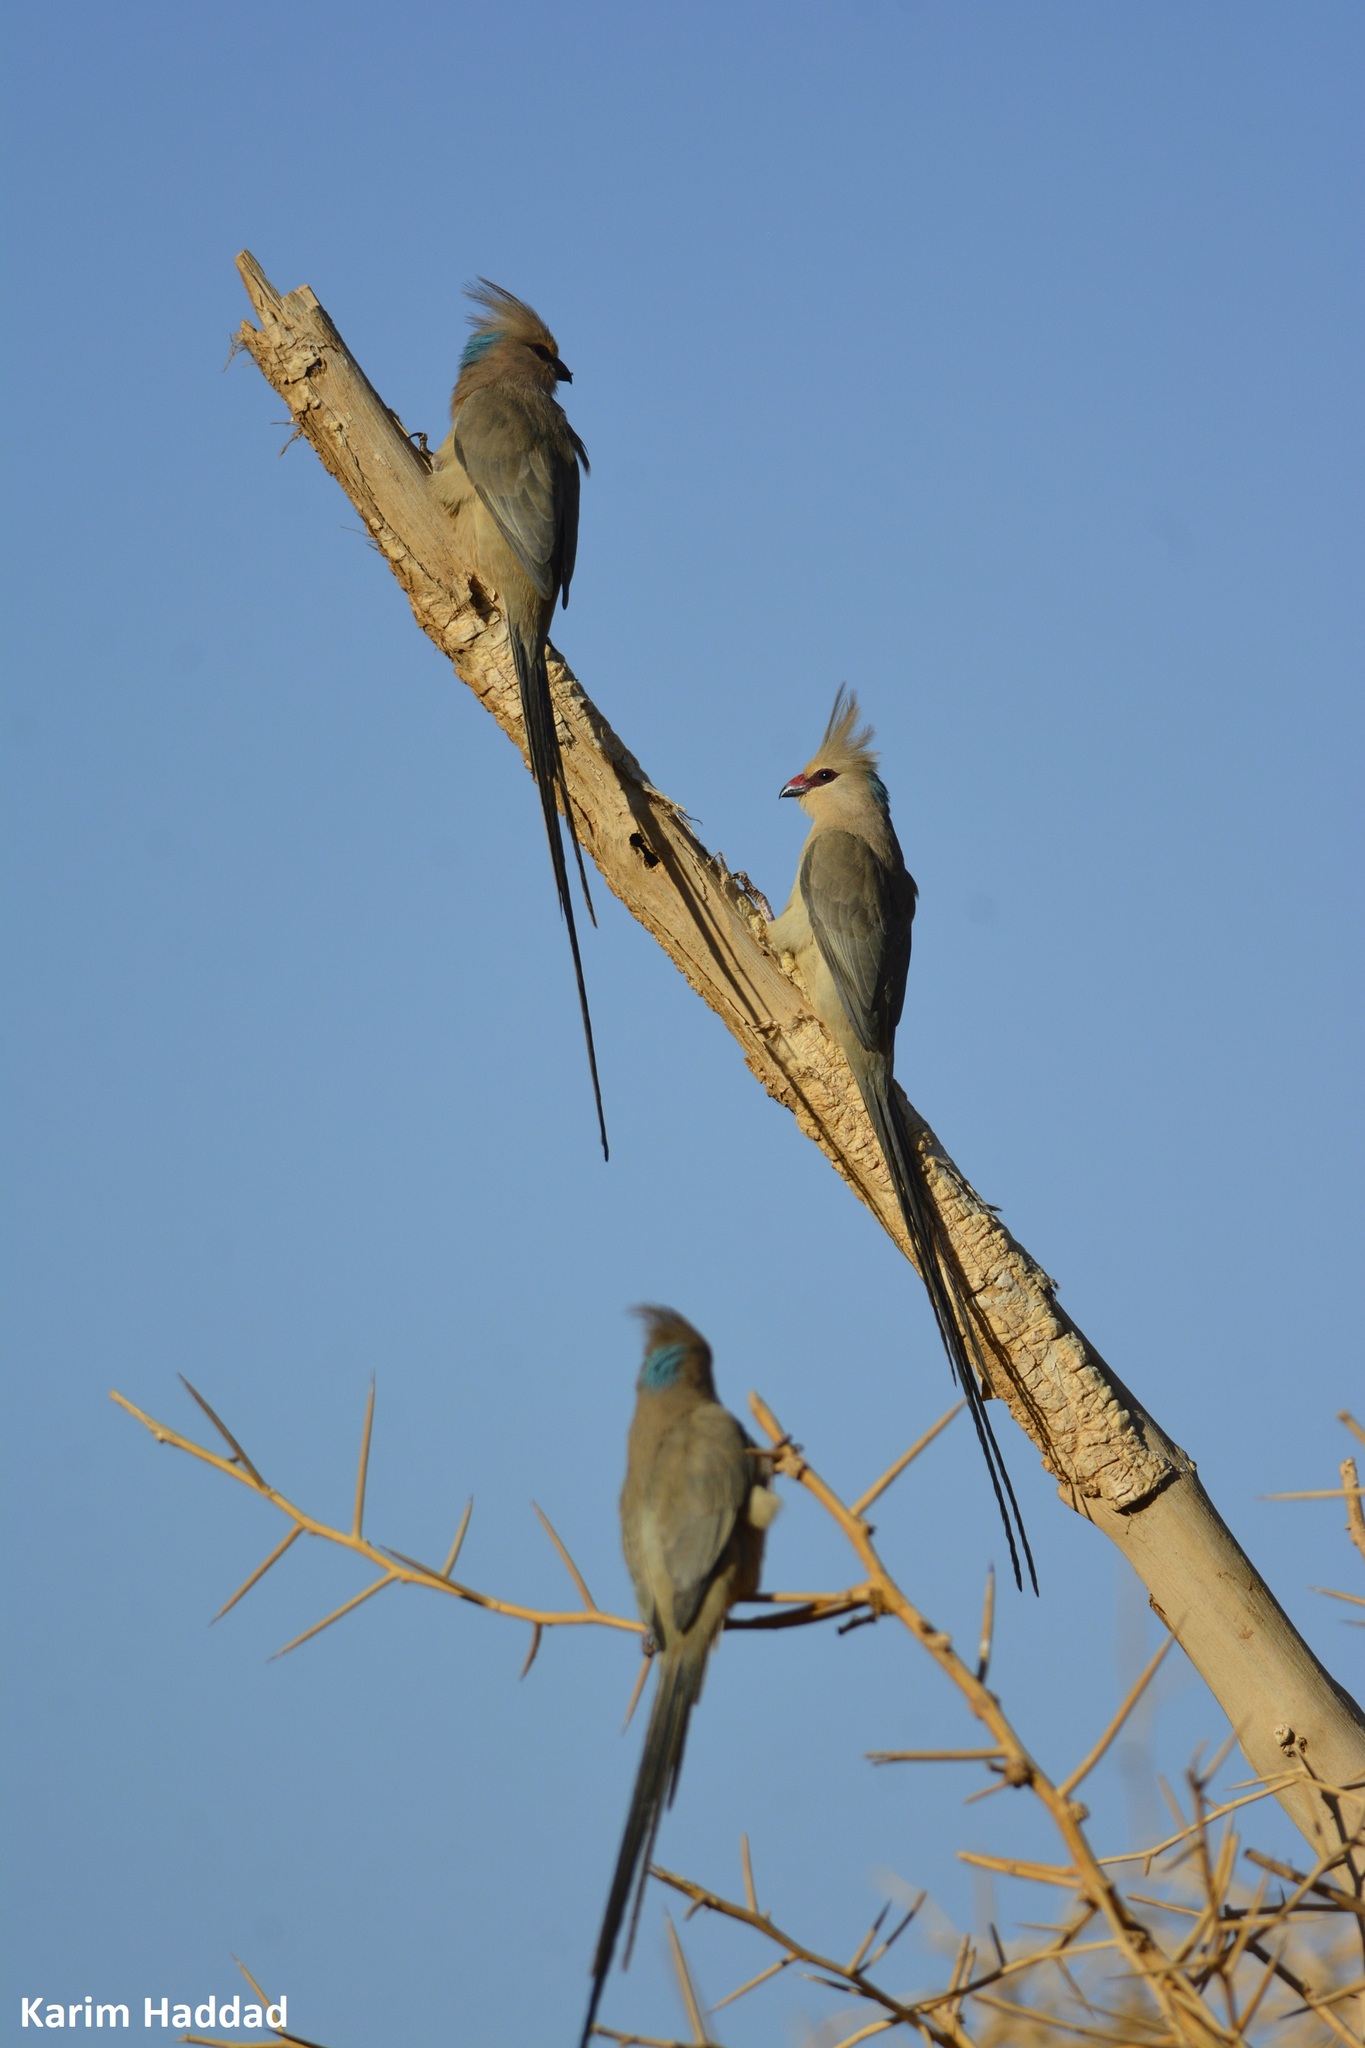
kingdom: Animalia
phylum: Chordata
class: Aves
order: Coliiformes
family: Coliidae
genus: Urocolius
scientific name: Urocolius macrourus
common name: Blue-naped mousebird
